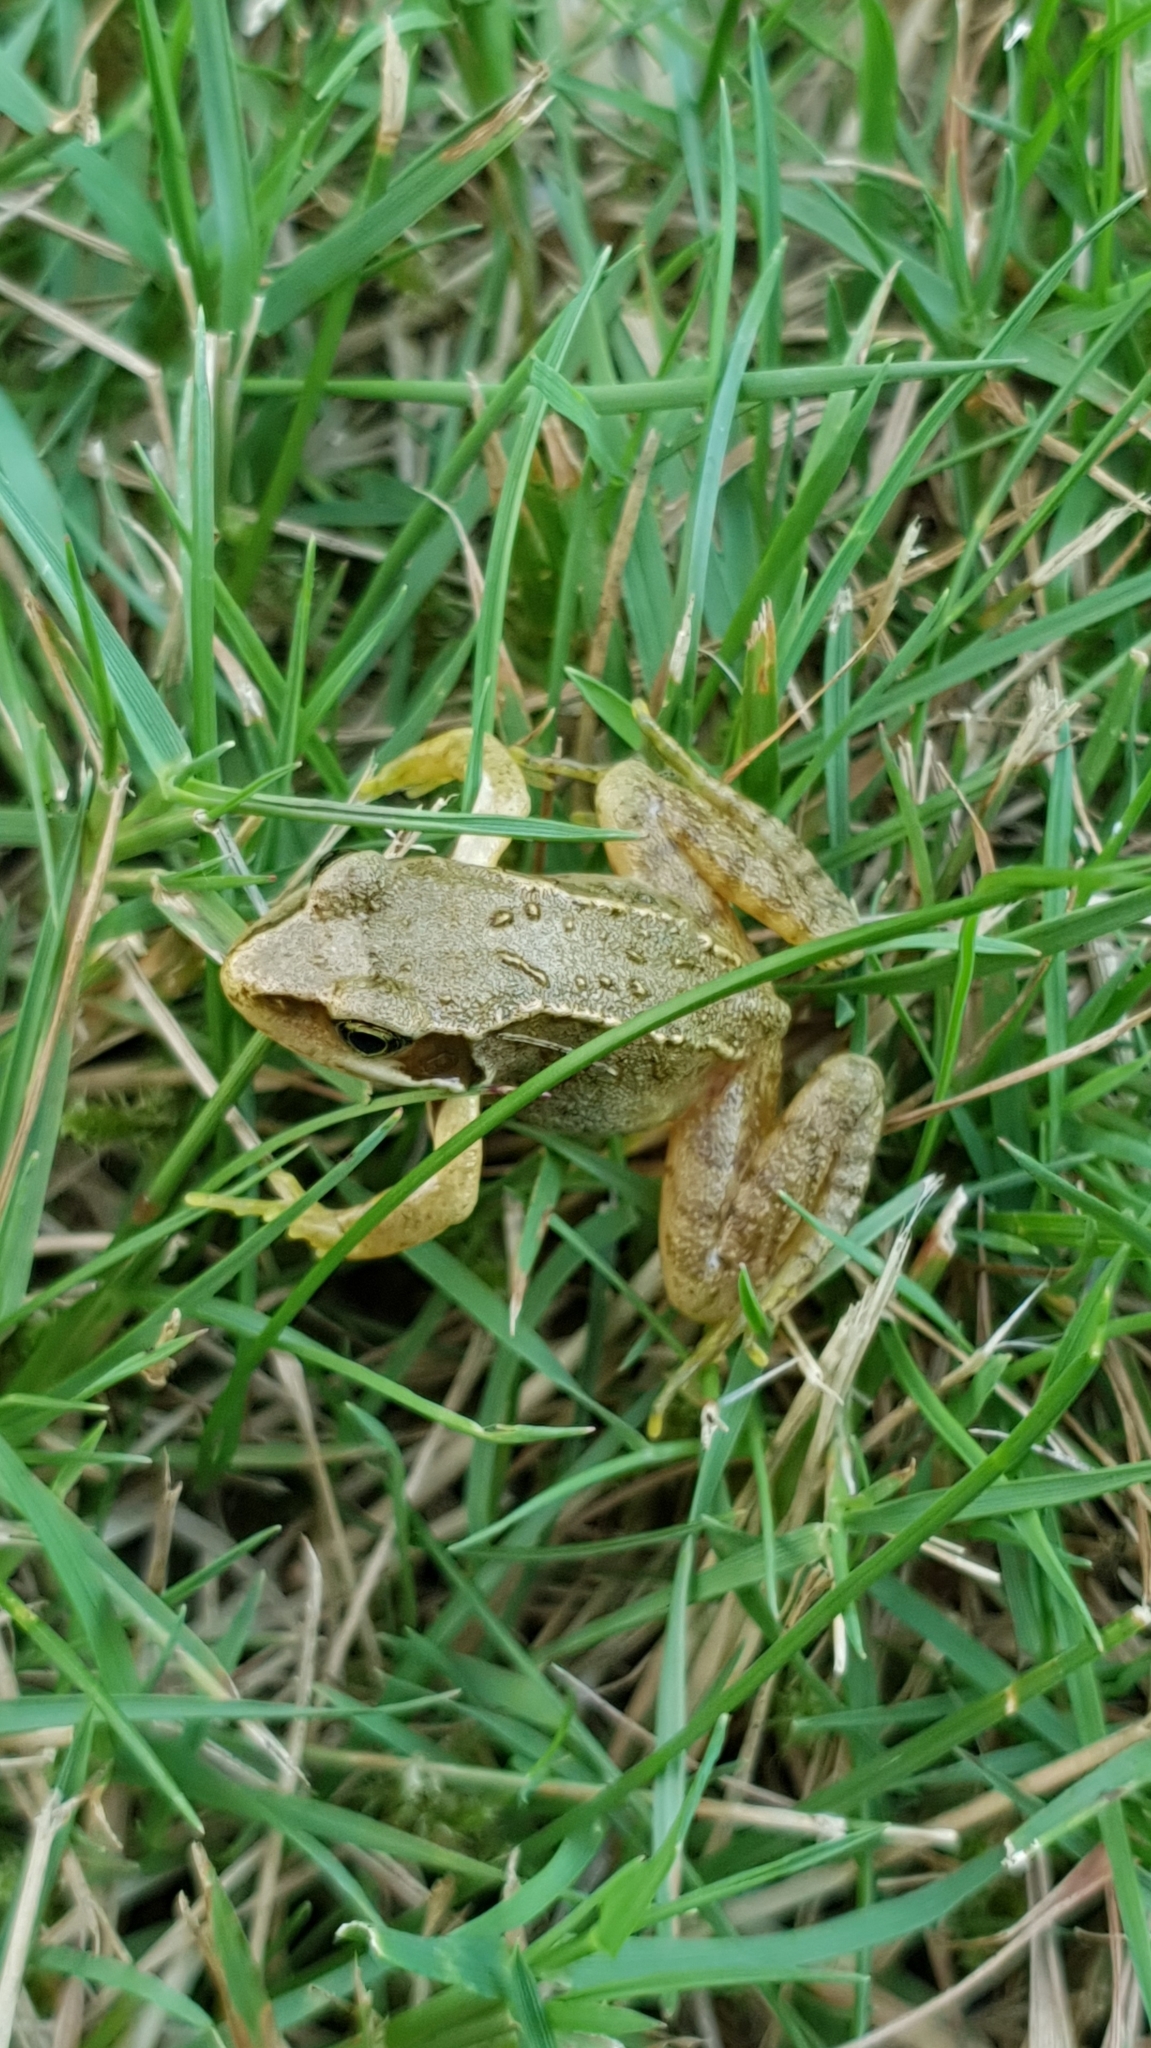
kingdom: Animalia
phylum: Chordata
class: Amphibia
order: Anura
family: Ranidae
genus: Rana
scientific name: Rana temporaria
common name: Common frog
